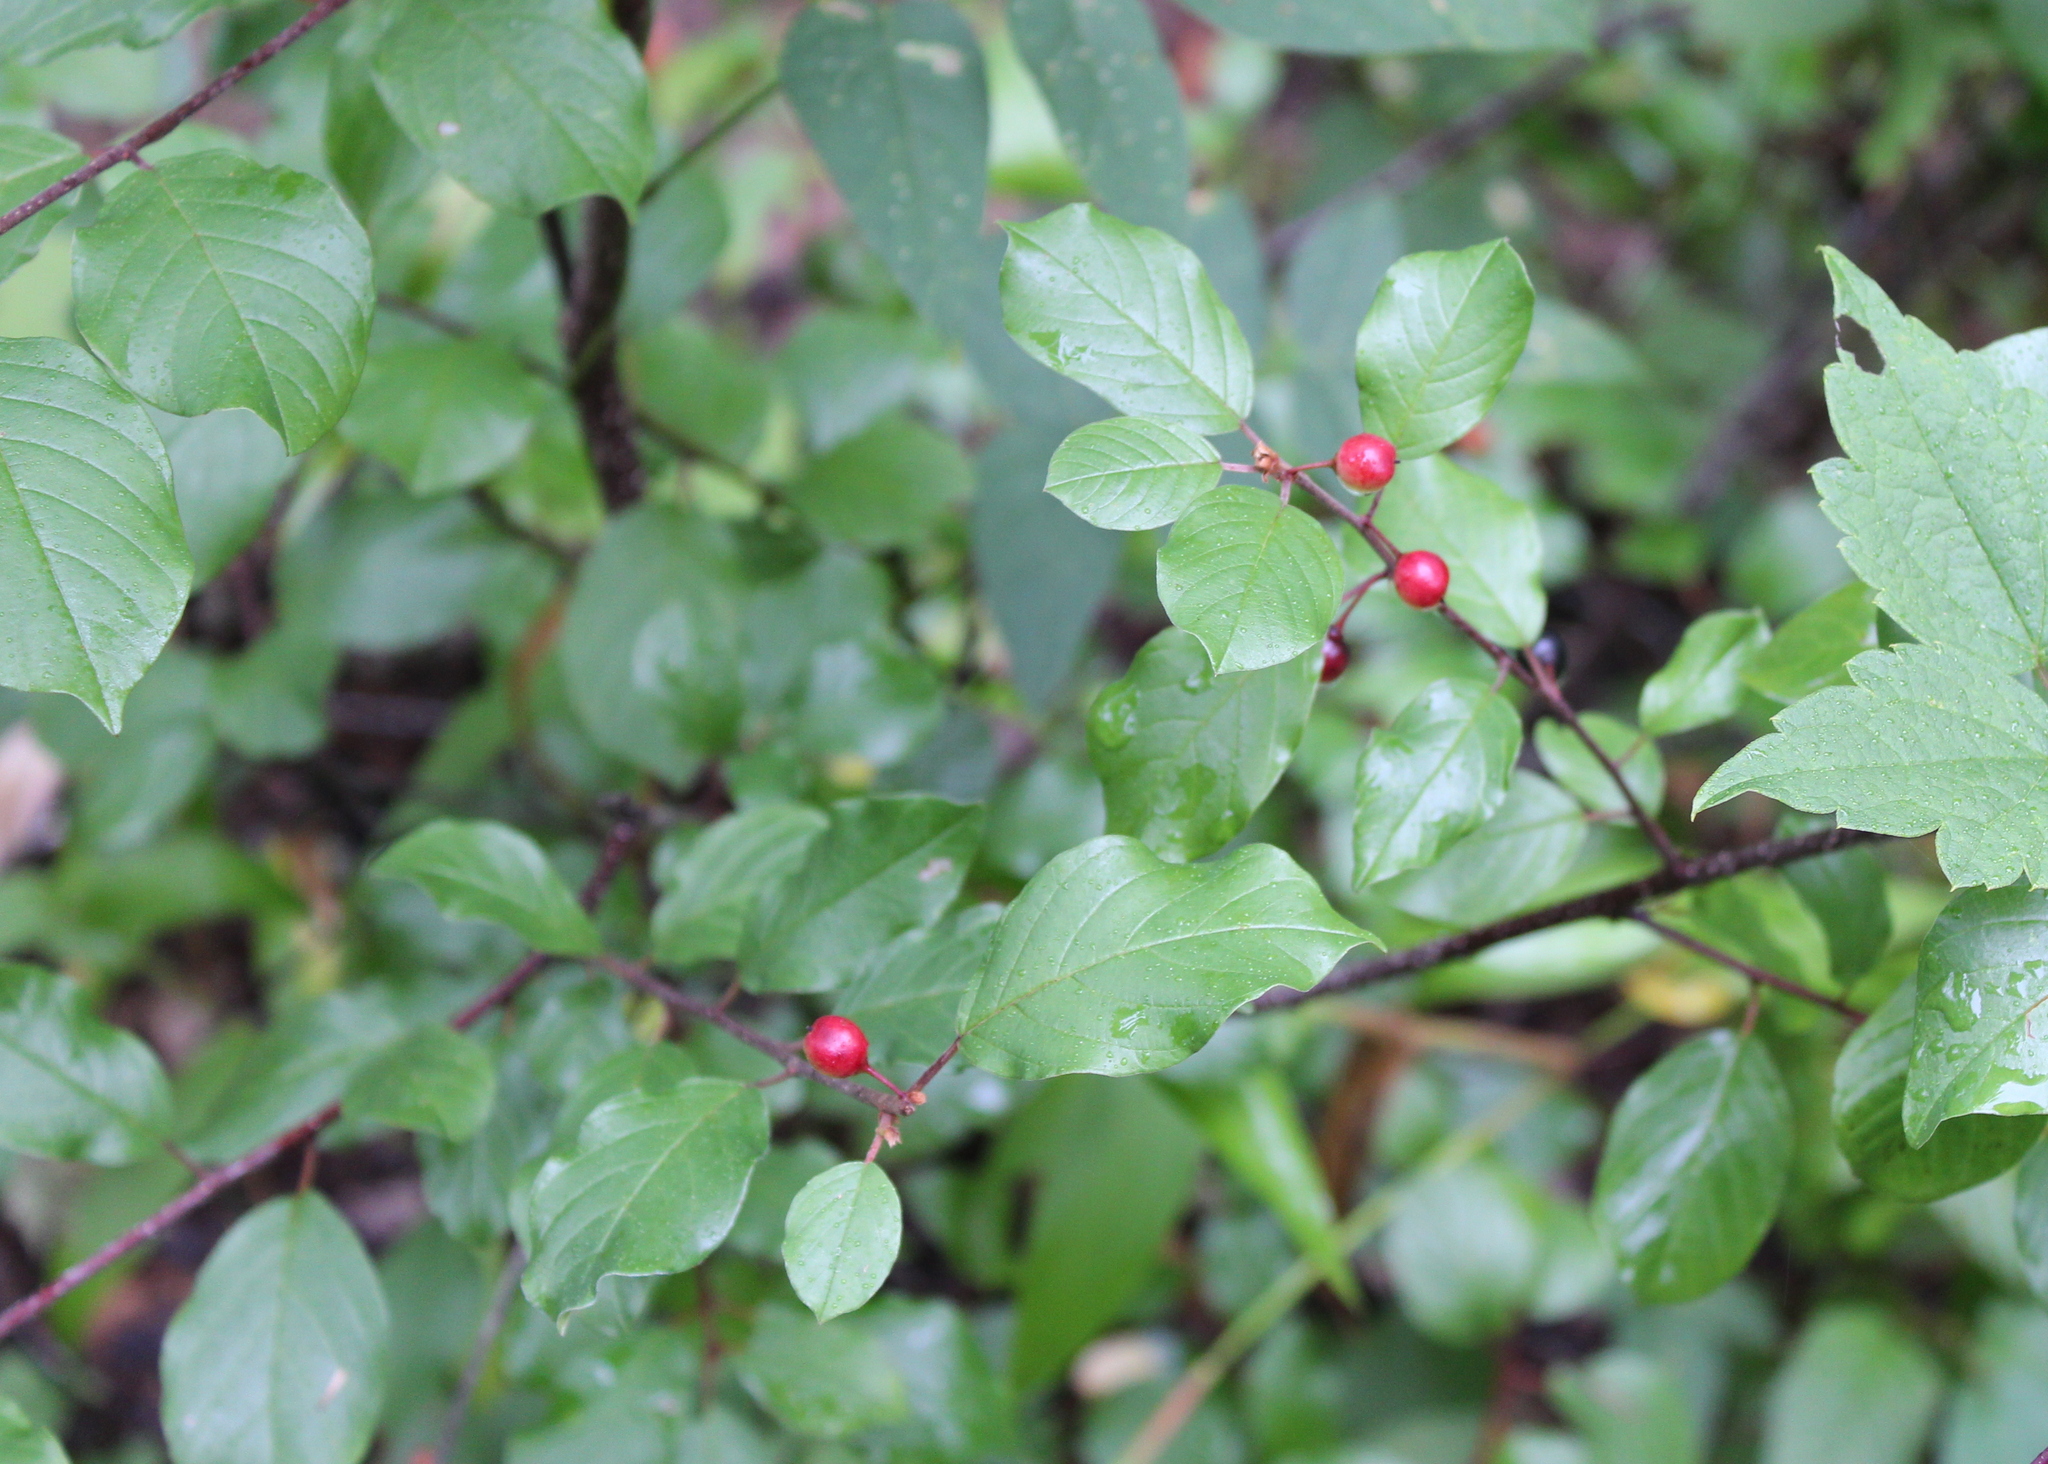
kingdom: Plantae
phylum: Tracheophyta
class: Magnoliopsida
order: Rosales
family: Rhamnaceae
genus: Frangula
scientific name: Frangula alnus
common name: Alder buckthorn
